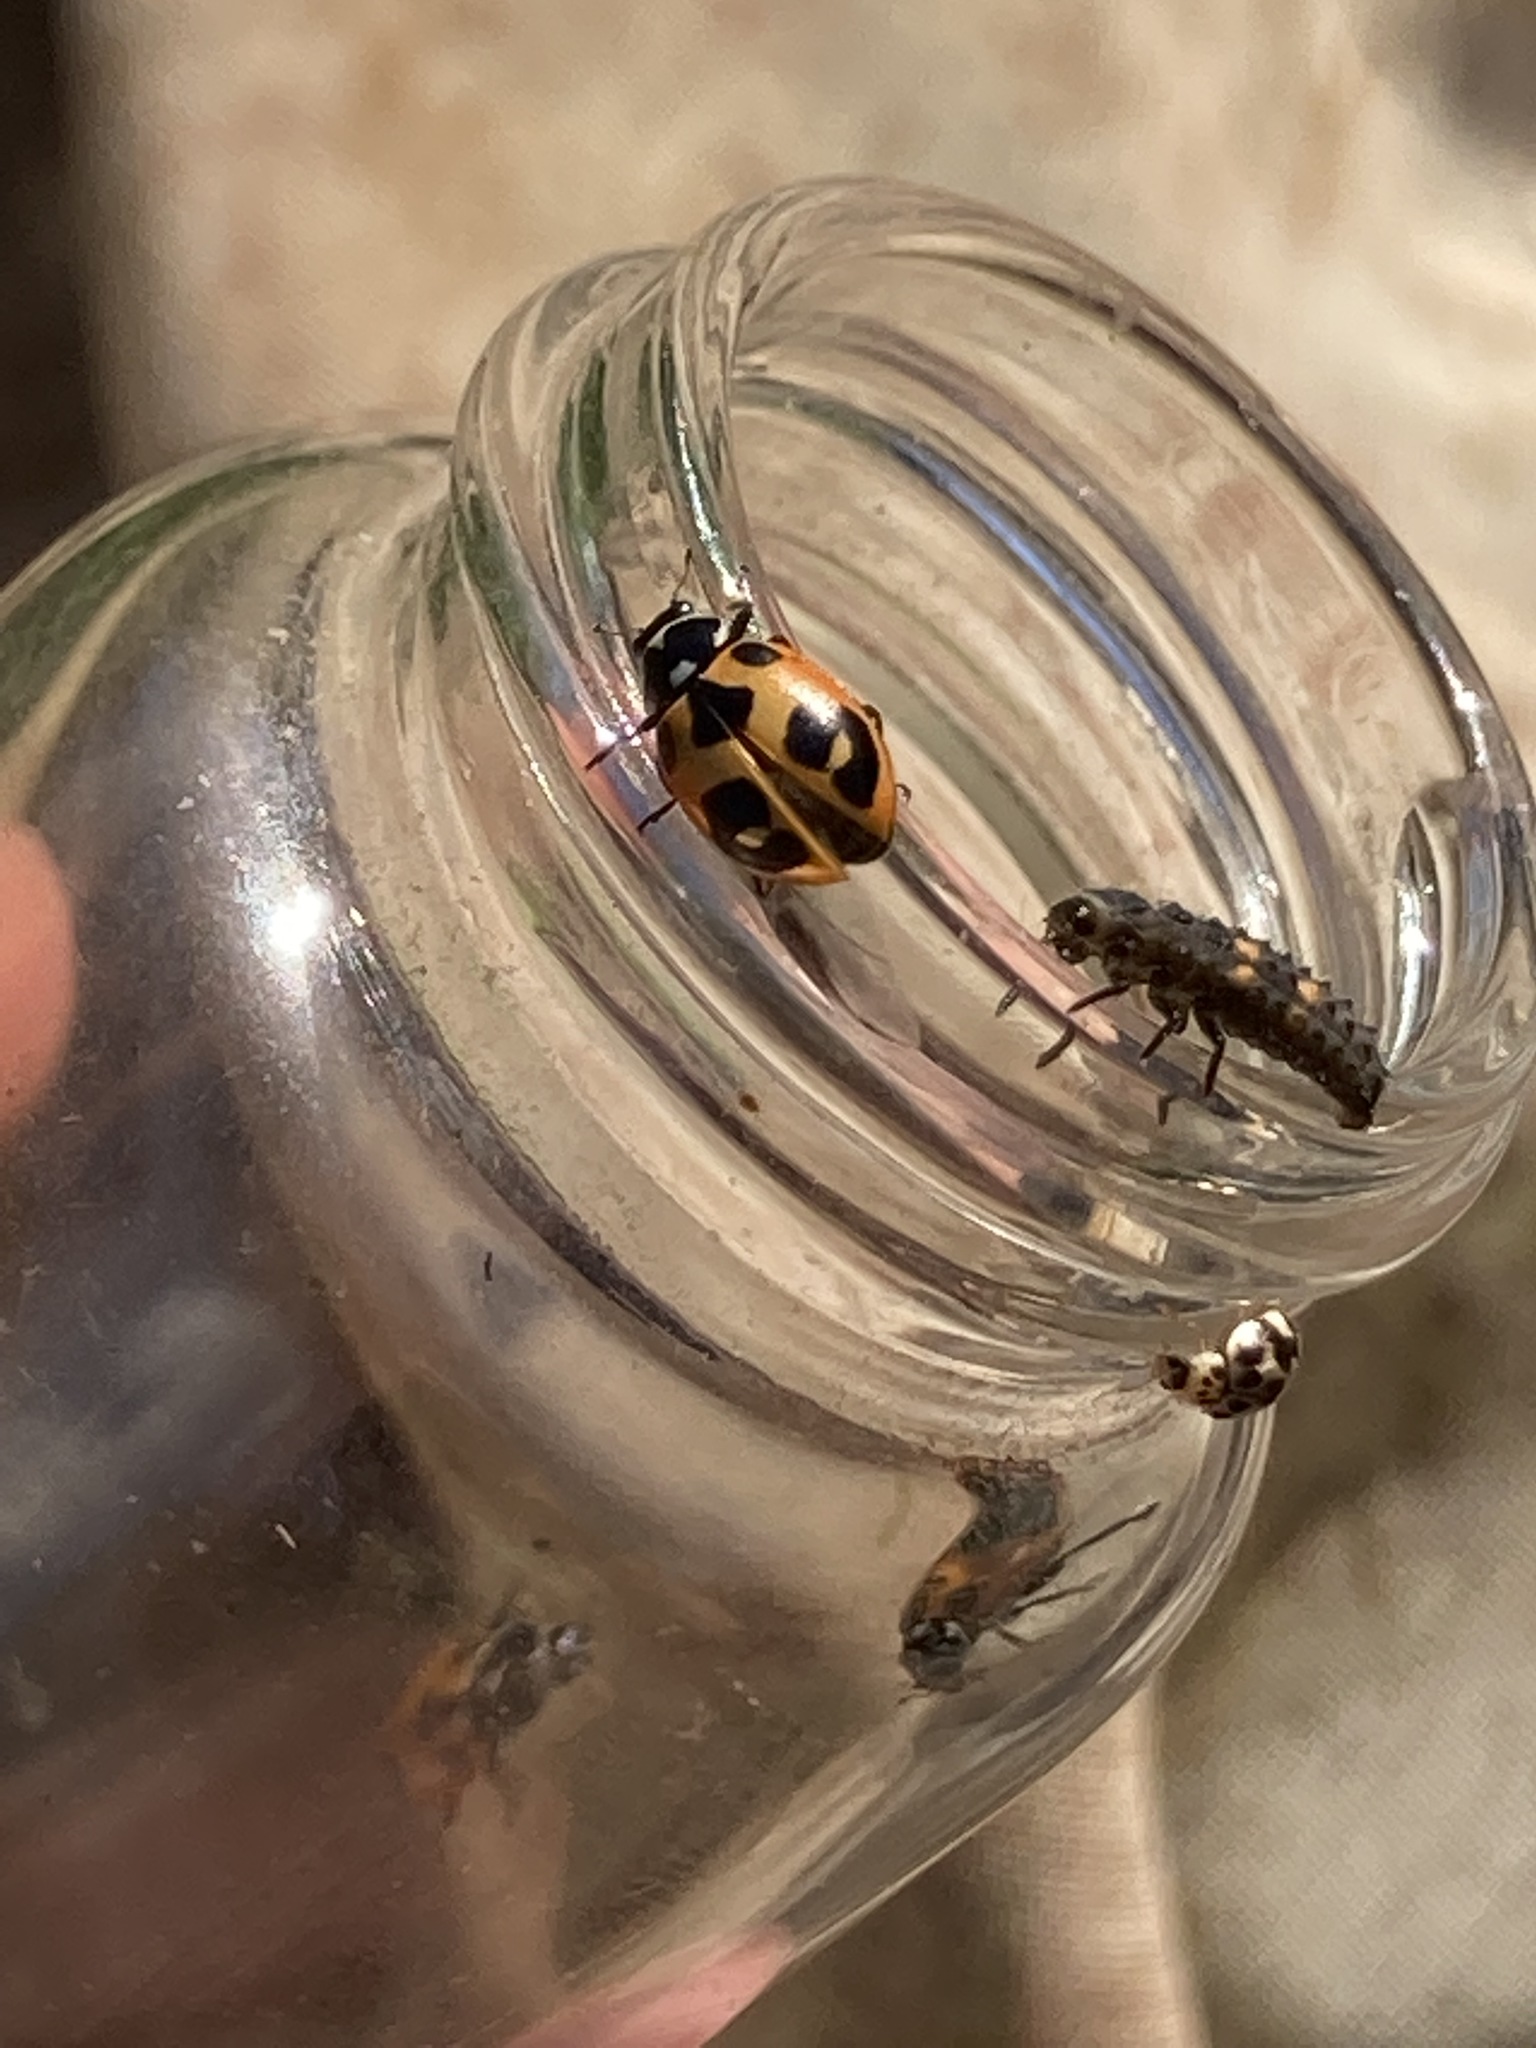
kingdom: Animalia
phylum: Arthropoda
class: Insecta
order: Coleoptera
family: Coccinellidae
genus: Hippodamia
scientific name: Hippodamia parenthesis
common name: Parenthesis lady beetle
